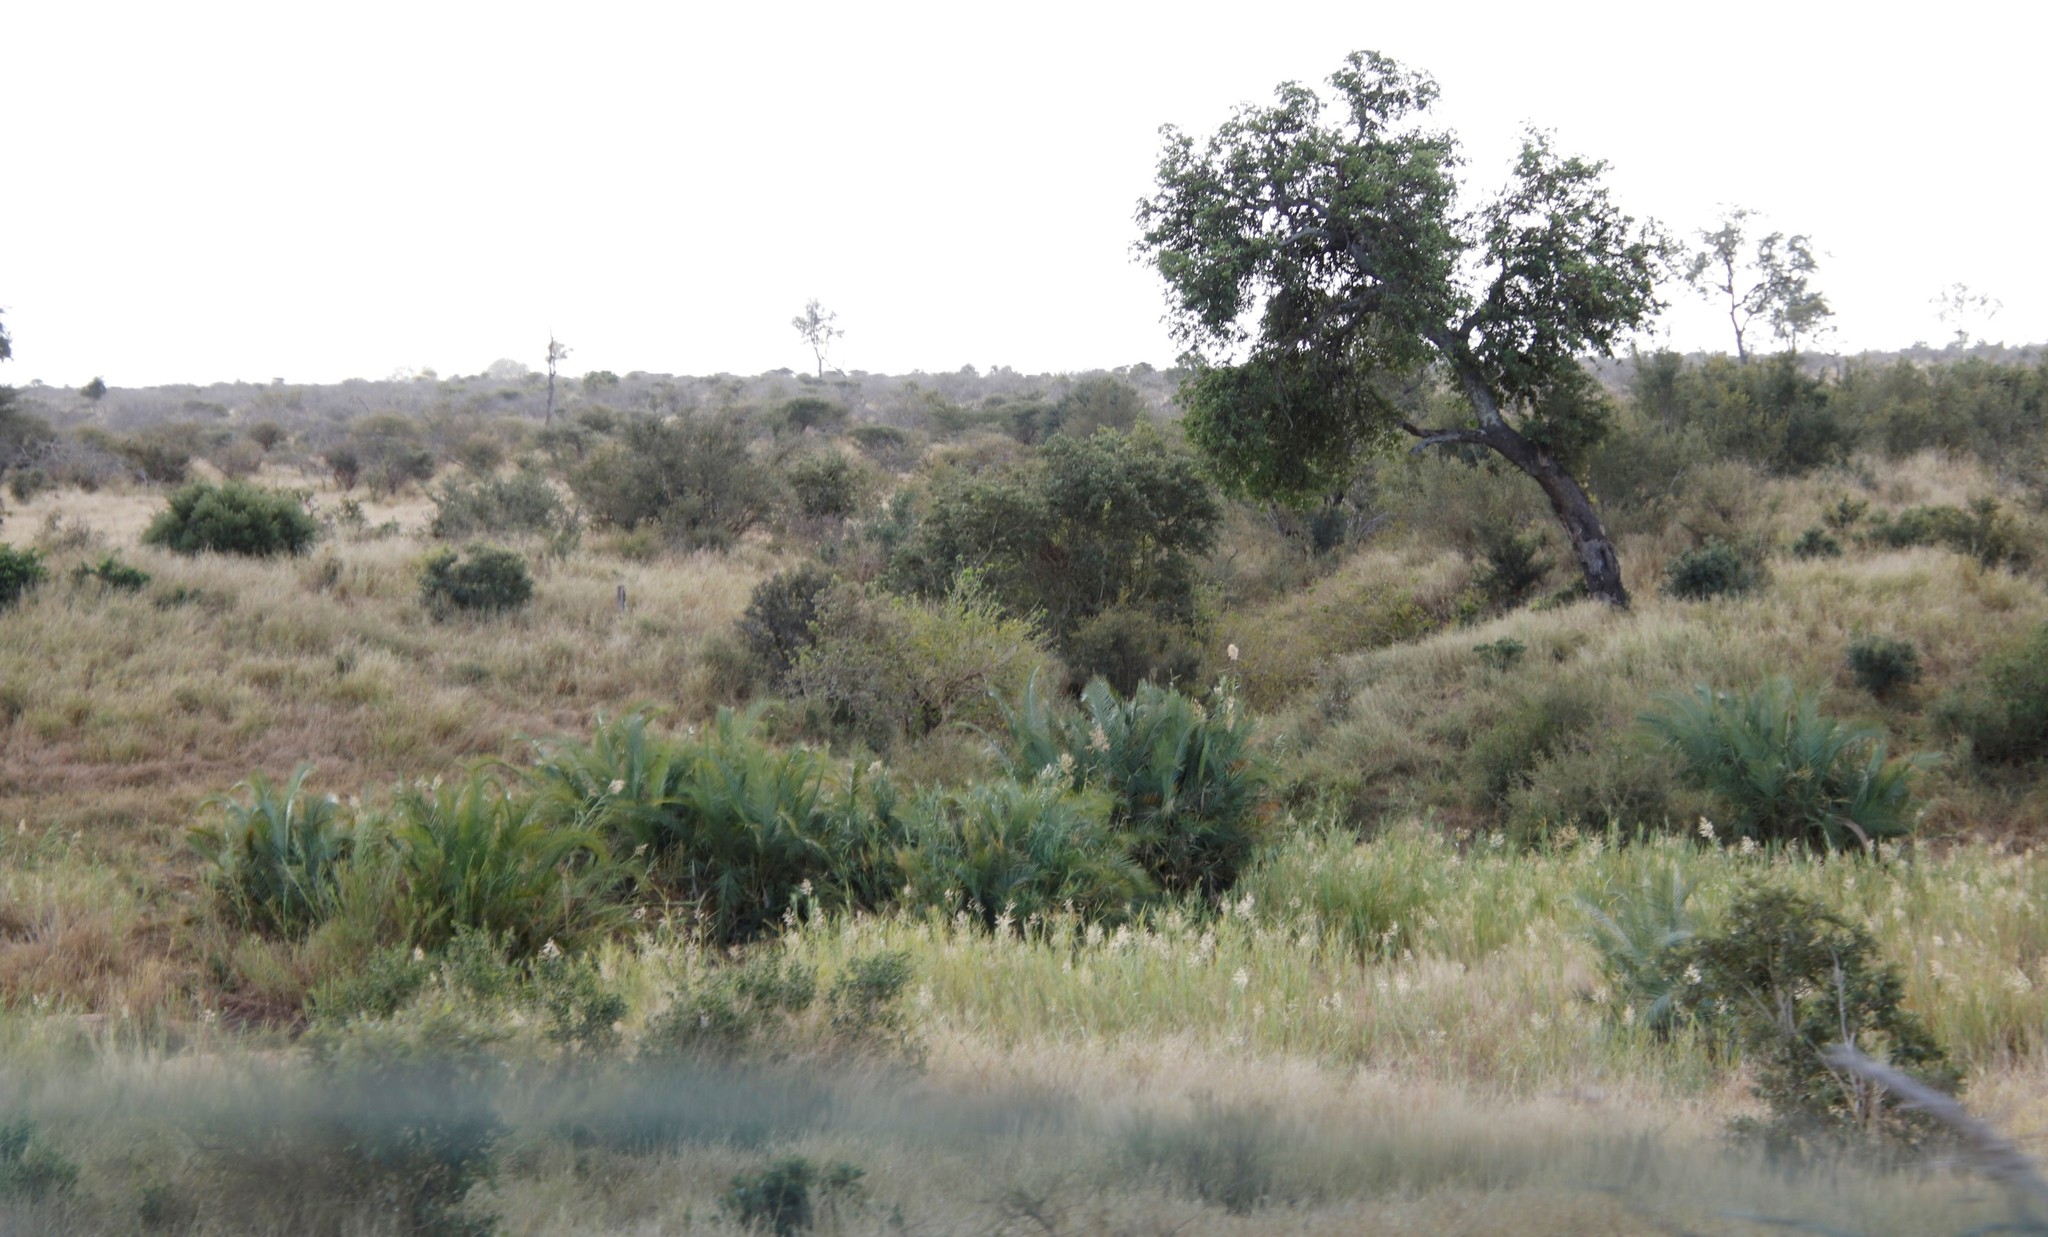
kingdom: Plantae
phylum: Tracheophyta
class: Liliopsida
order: Poales
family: Poaceae
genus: Phragmites
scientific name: Phragmites mauritianus
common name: Reed grass
